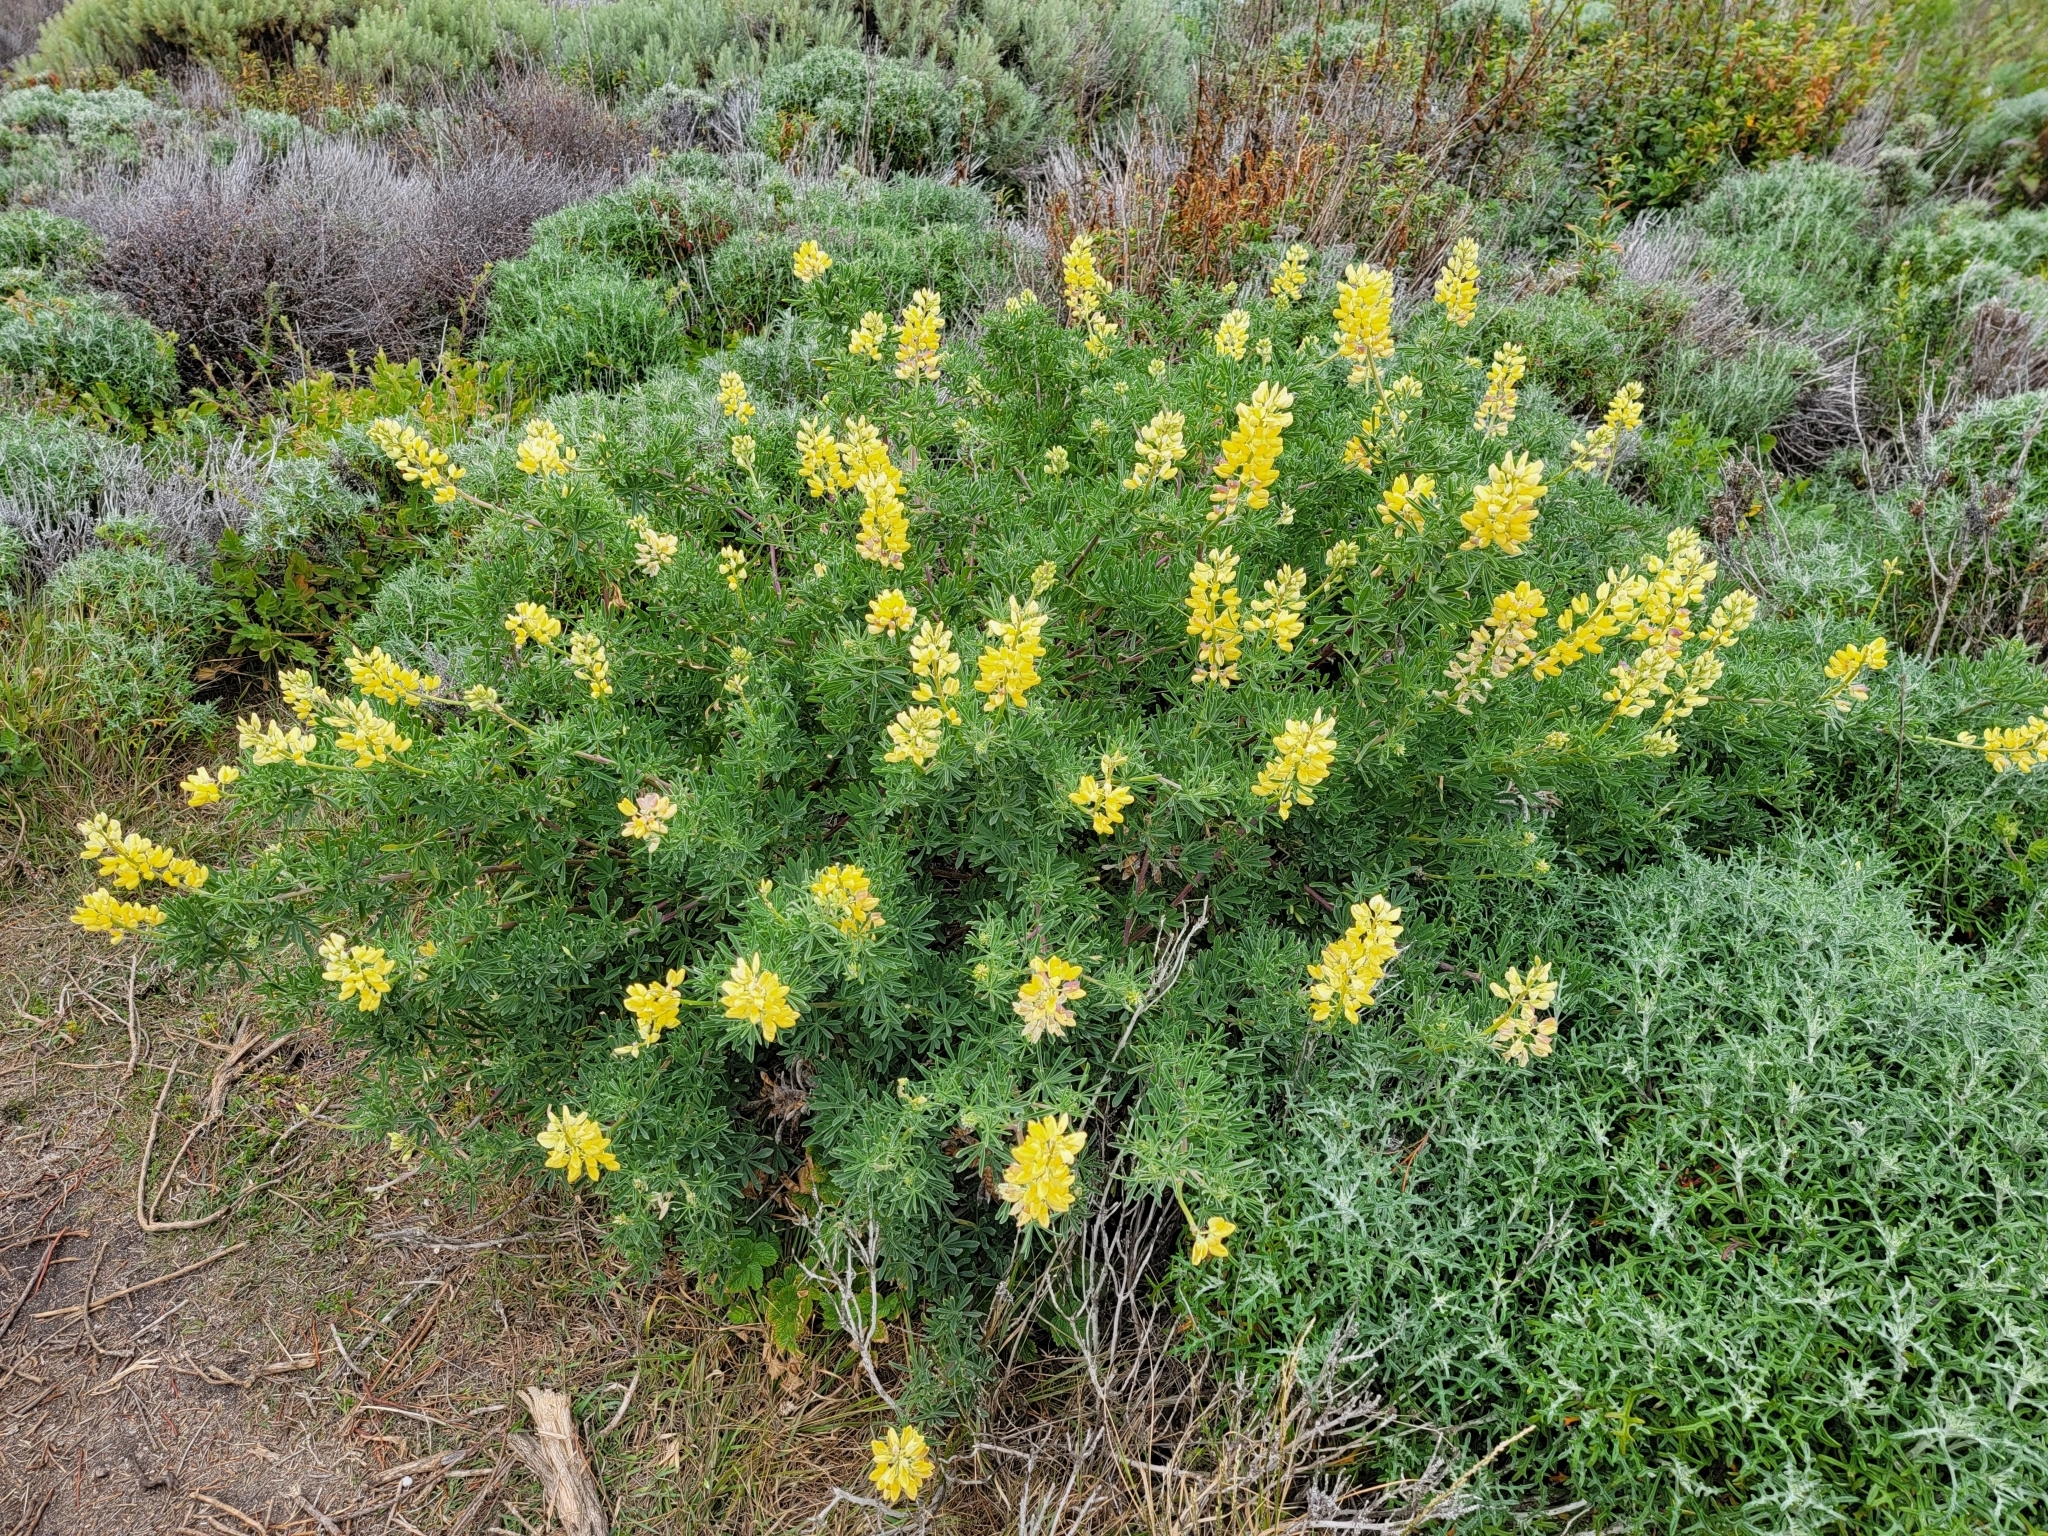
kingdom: Plantae
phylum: Tracheophyta
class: Magnoliopsida
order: Fabales
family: Fabaceae
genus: Lupinus
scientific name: Lupinus arboreus
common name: Yellow bush lupine
